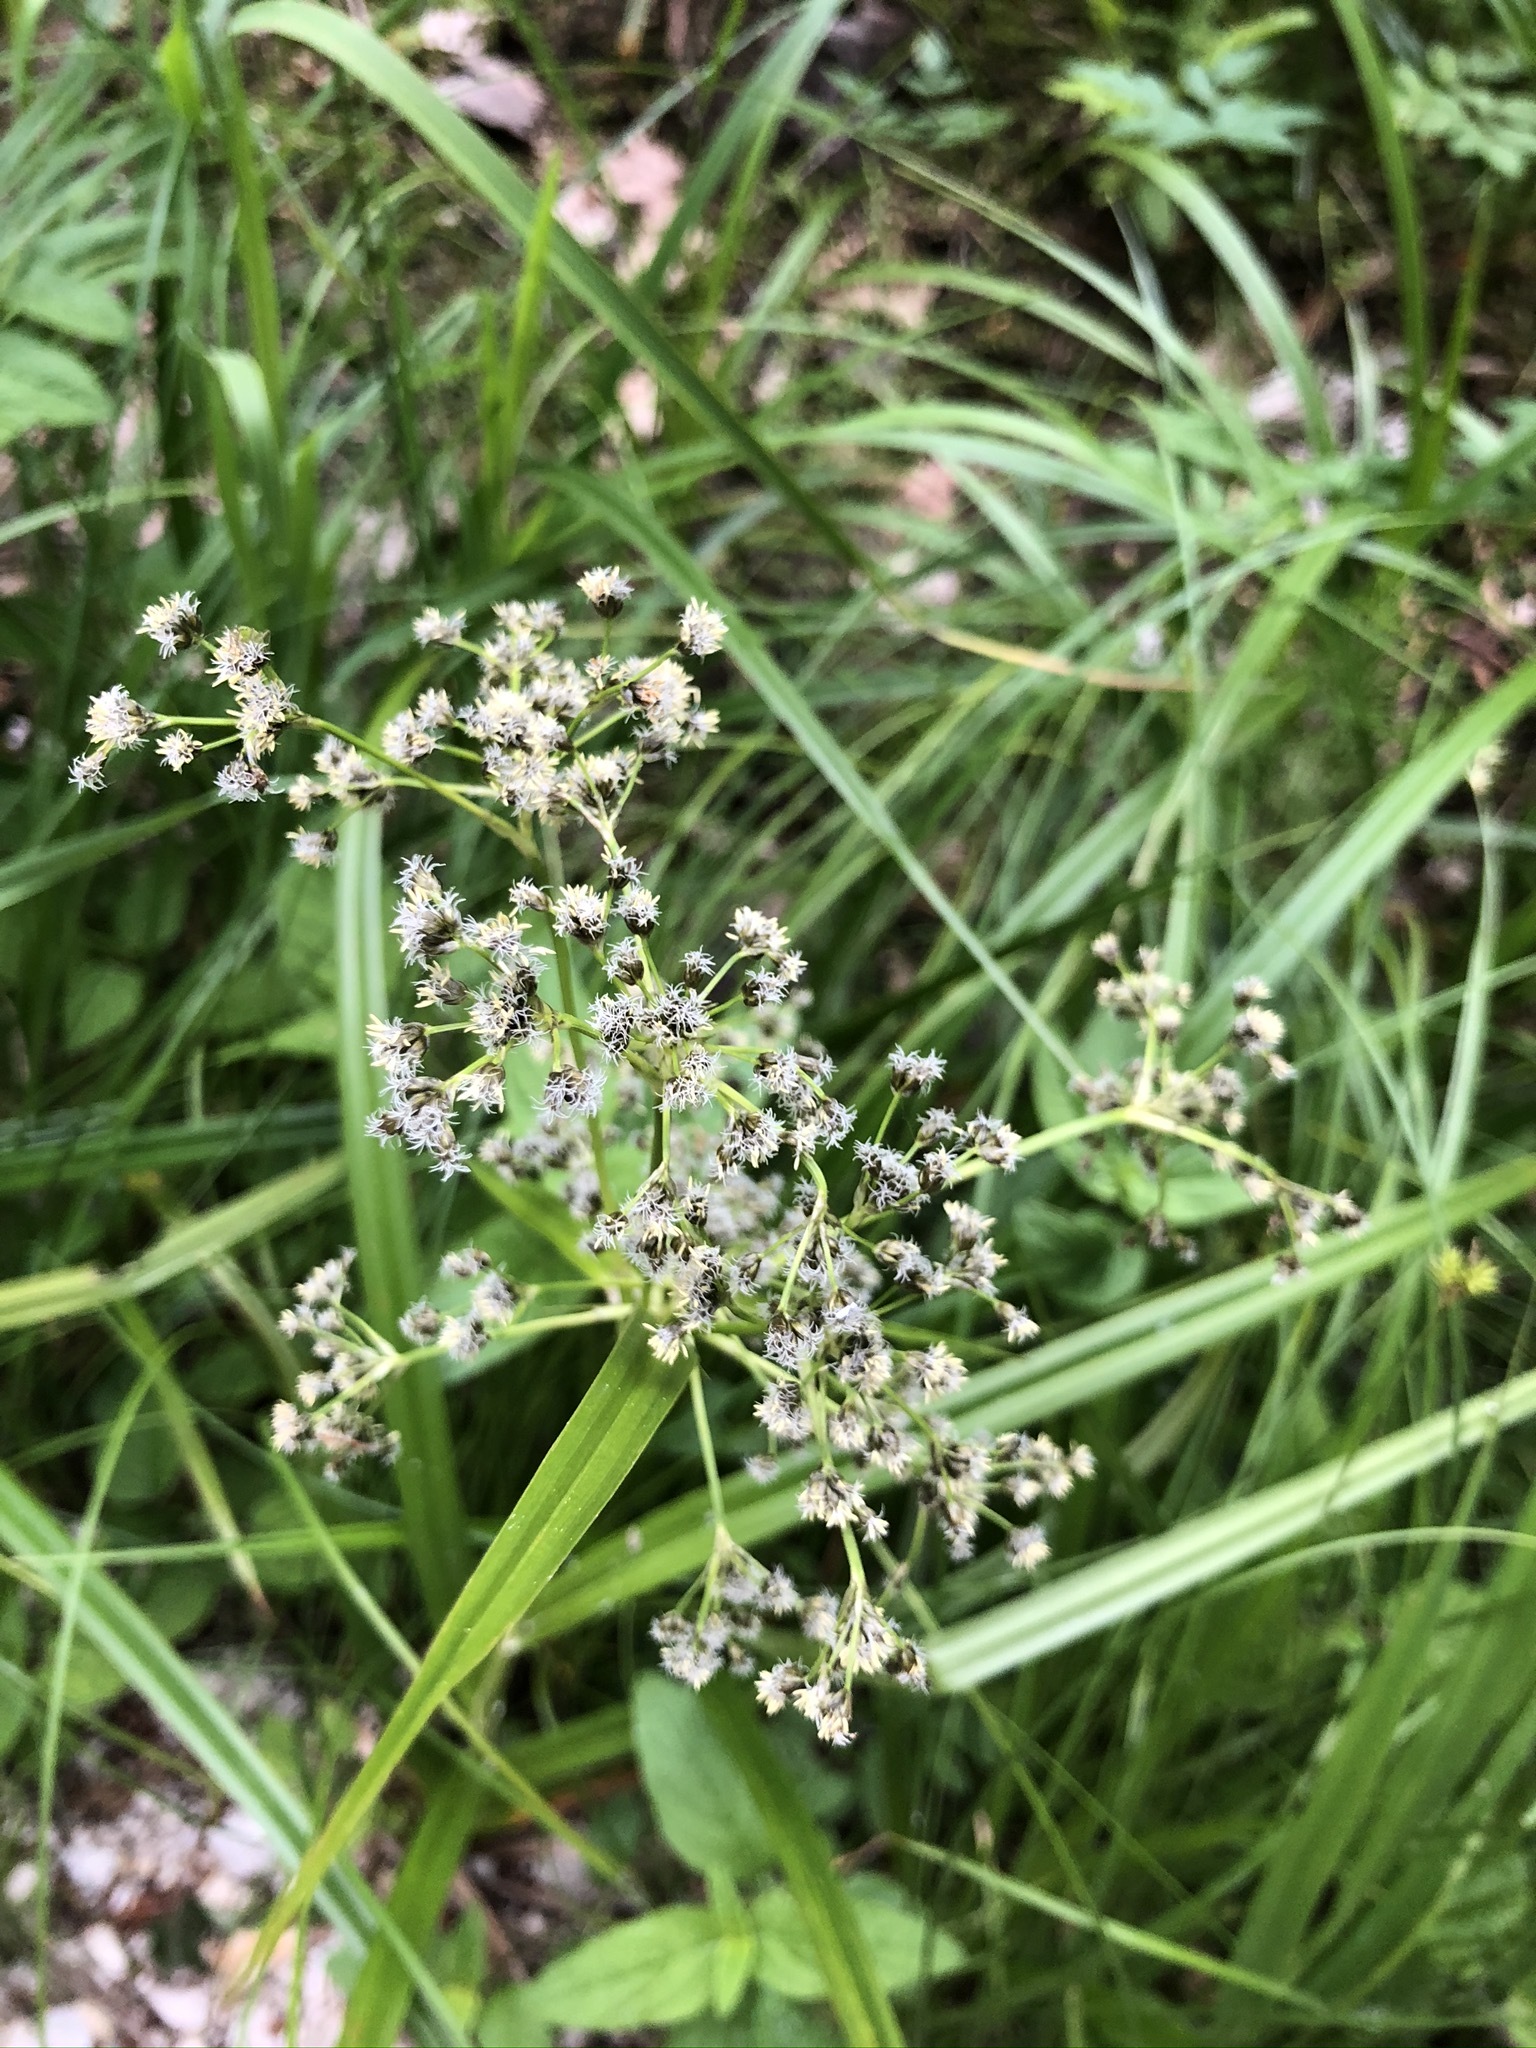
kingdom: Plantae
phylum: Tracheophyta
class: Liliopsida
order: Poales
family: Cyperaceae
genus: Scirpus
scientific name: Scirpus sylvaticus
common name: Wood club-rush
